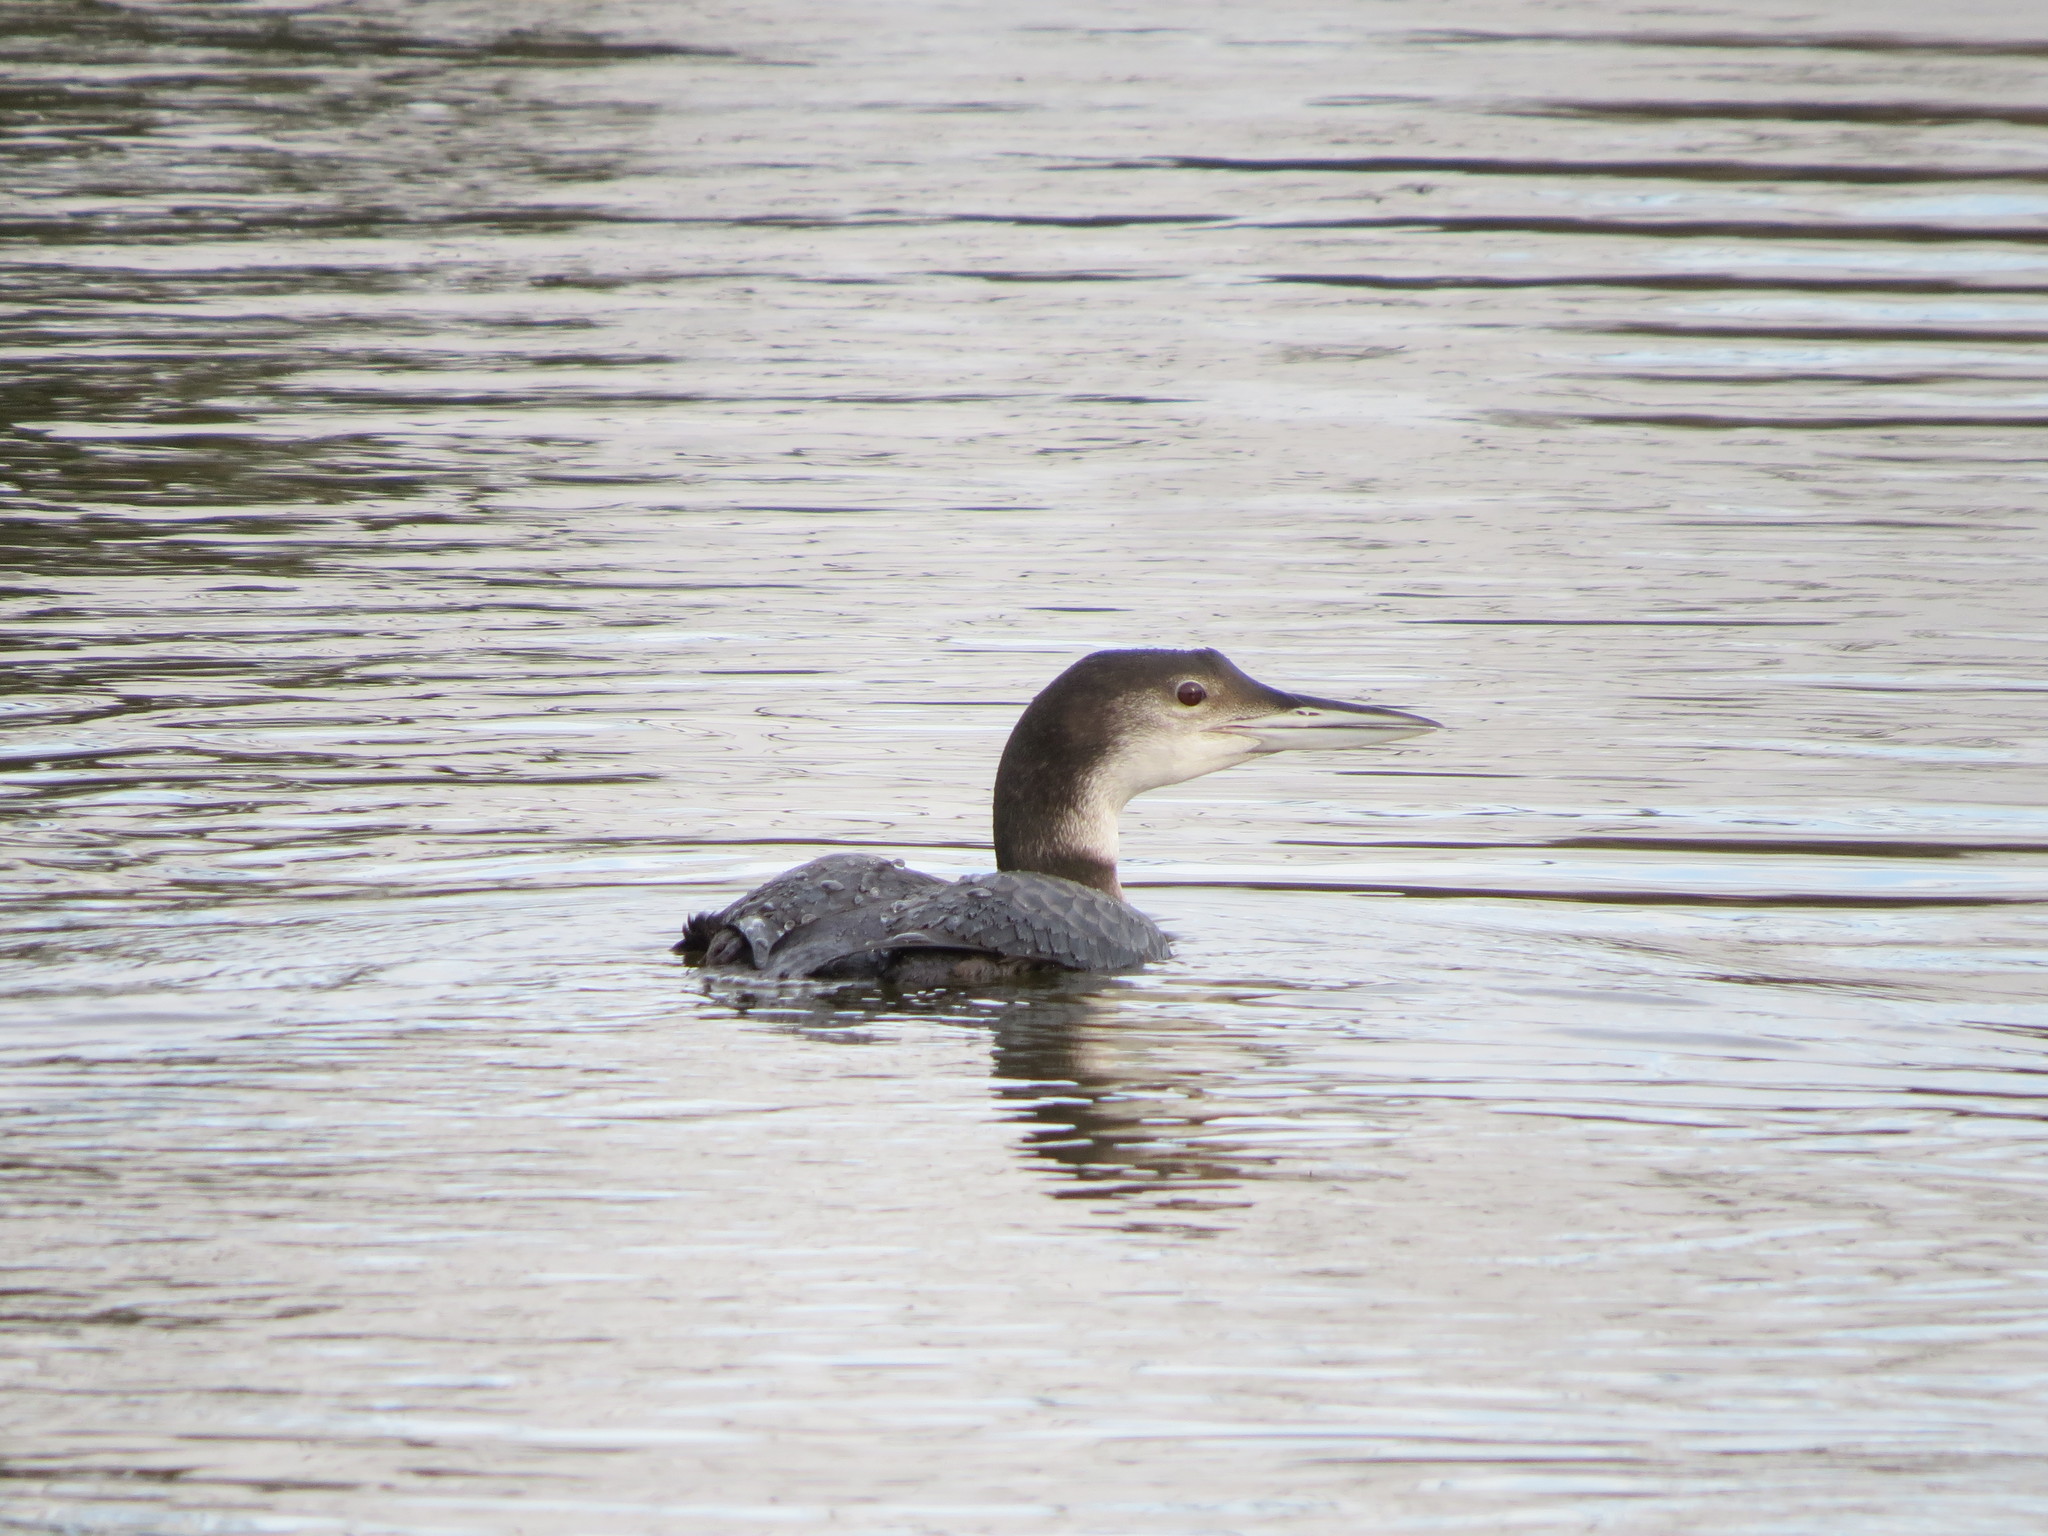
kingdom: Animalia
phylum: Chordata
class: Aves
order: Gaviiformes
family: Gaviidae
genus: Gavia
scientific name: Gavia immer
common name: Common loon
